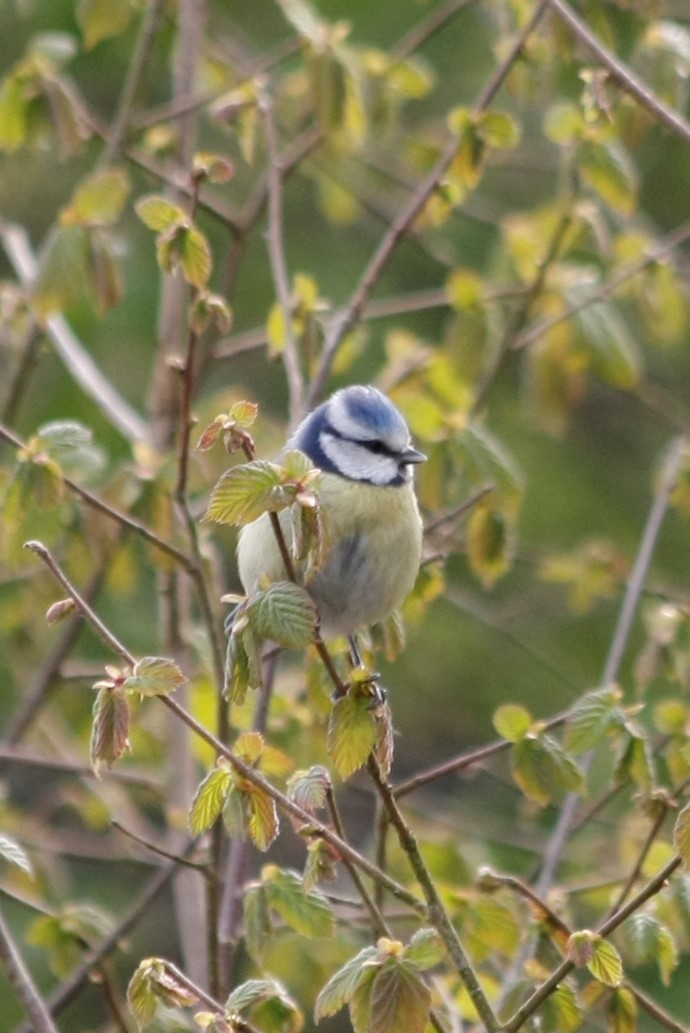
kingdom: Animalia
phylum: Chordata
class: Aves
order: Passeriformes
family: Paridae
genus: Cyanistes
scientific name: Cyanistes caeruleus
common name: Eurasian blue tit
